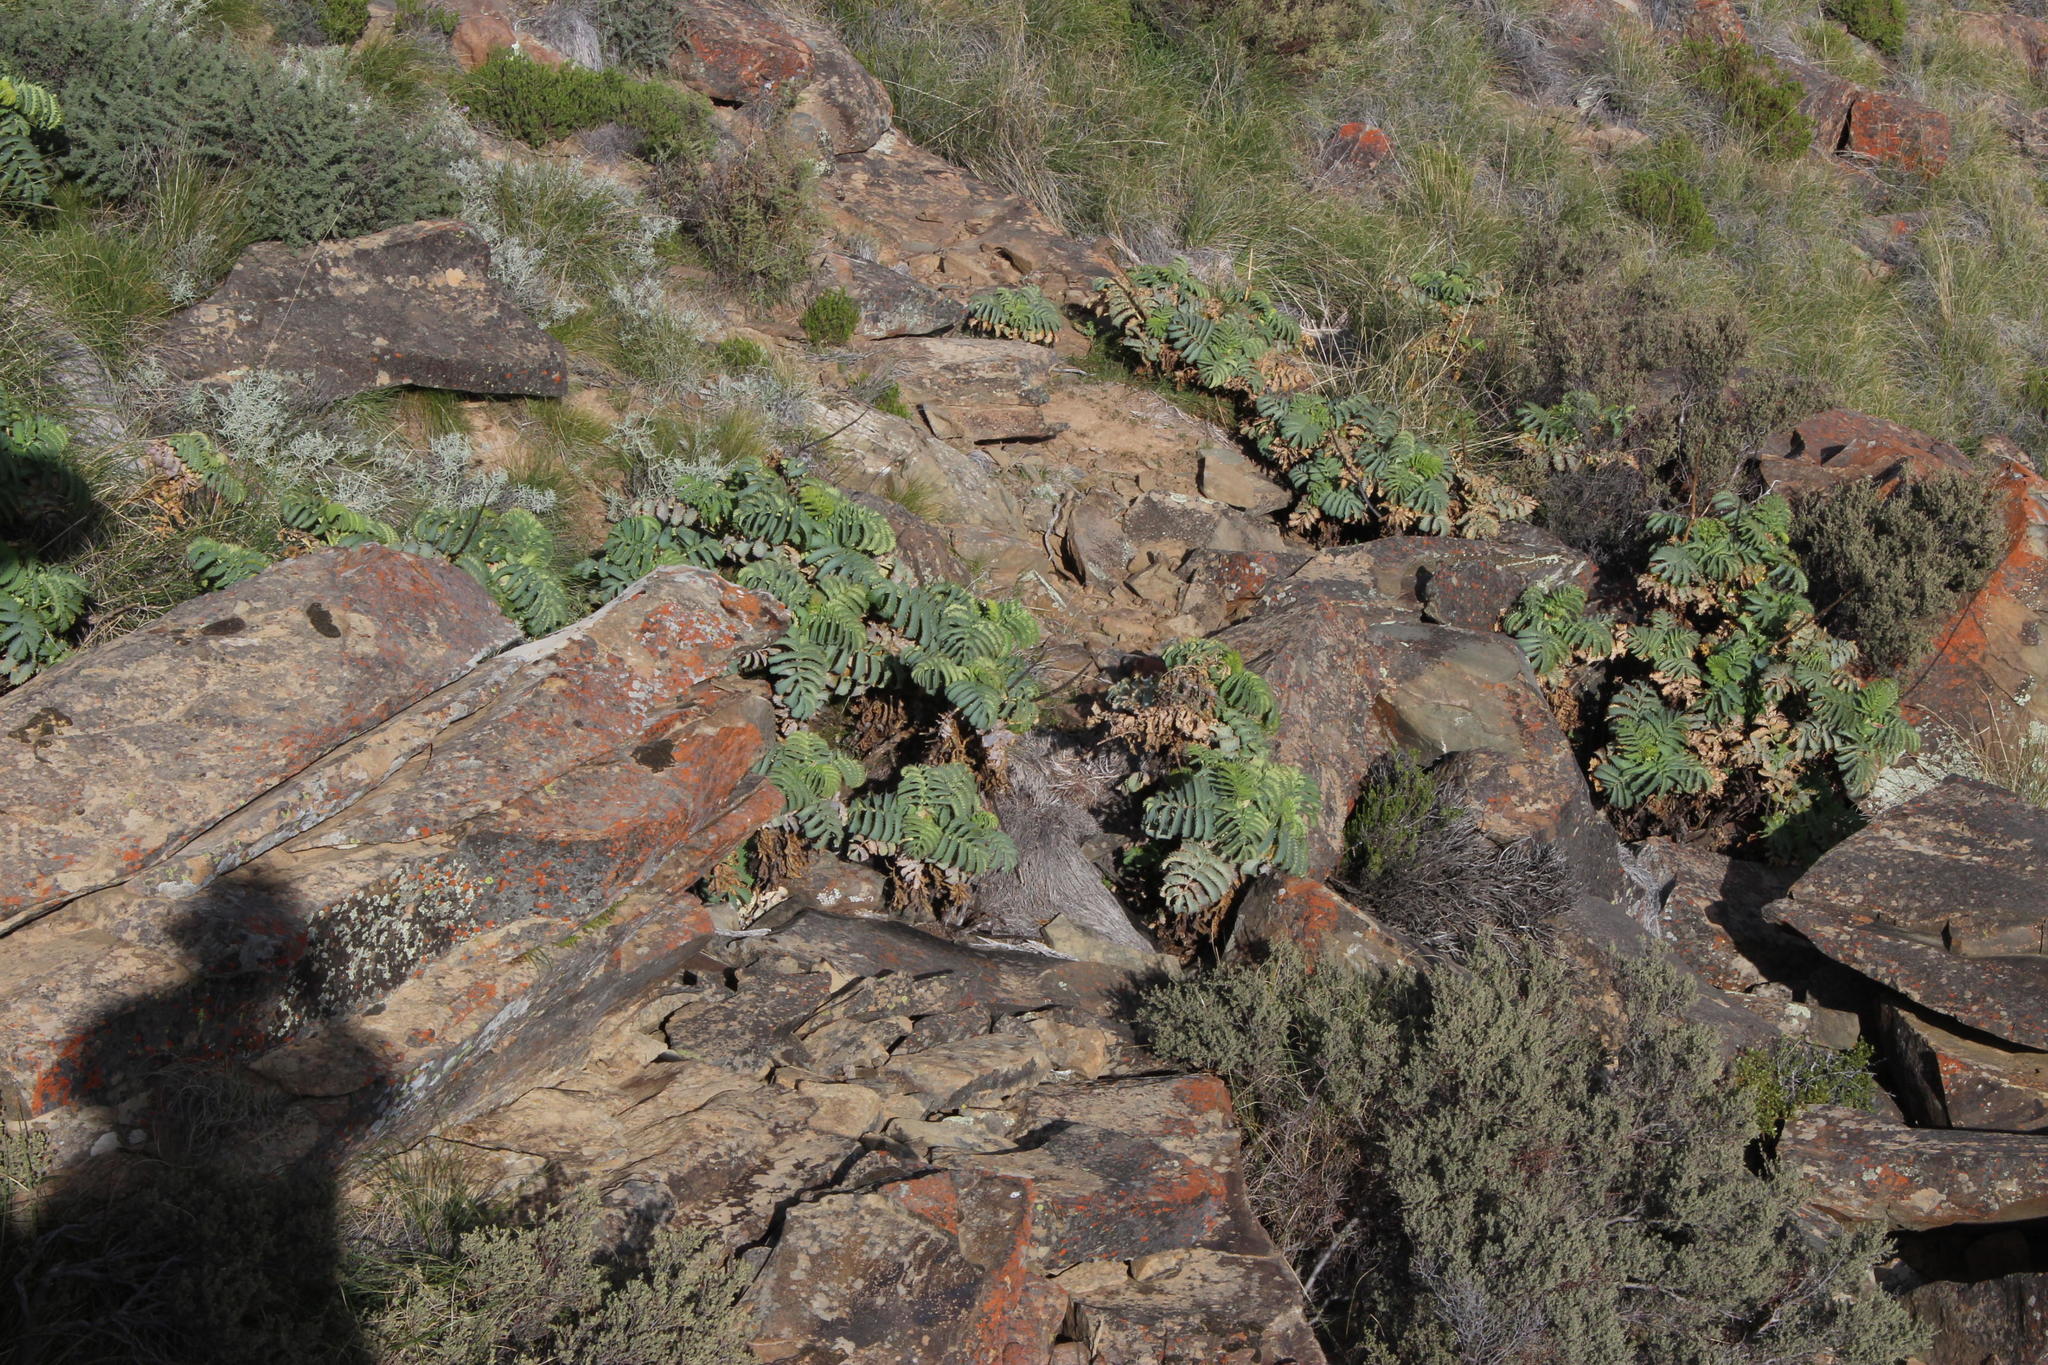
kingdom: Plantae
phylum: Tracheophyta
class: Magnoliopsida
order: Geraniales
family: Melianthaceae
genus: Melianthus
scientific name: Melianthus major
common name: Honey-flower
